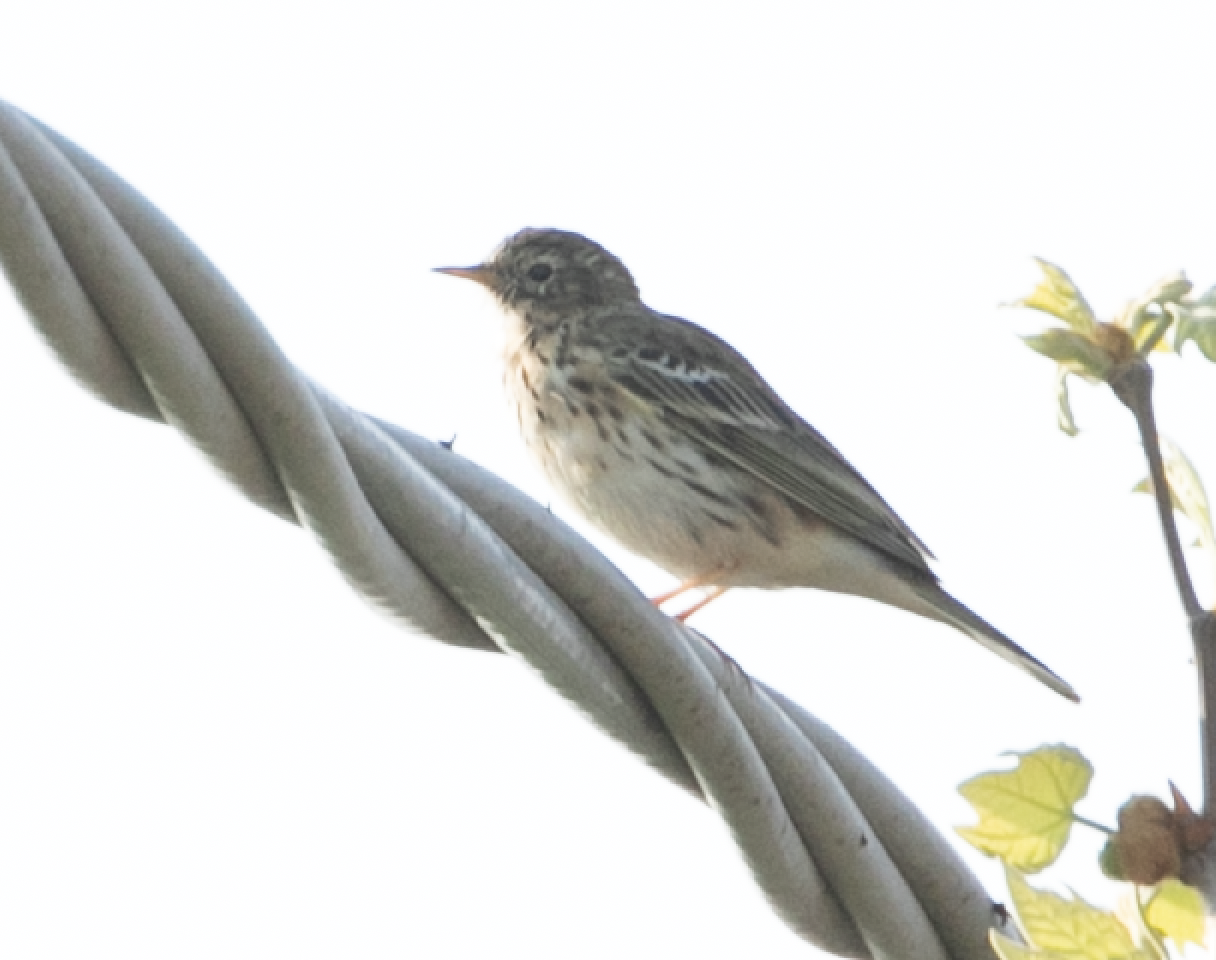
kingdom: Animalia
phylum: Chordata
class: Aves
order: Passeriformes
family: Motacillidae
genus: Anthus
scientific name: Anthus pratensis
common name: Meadow pipit
